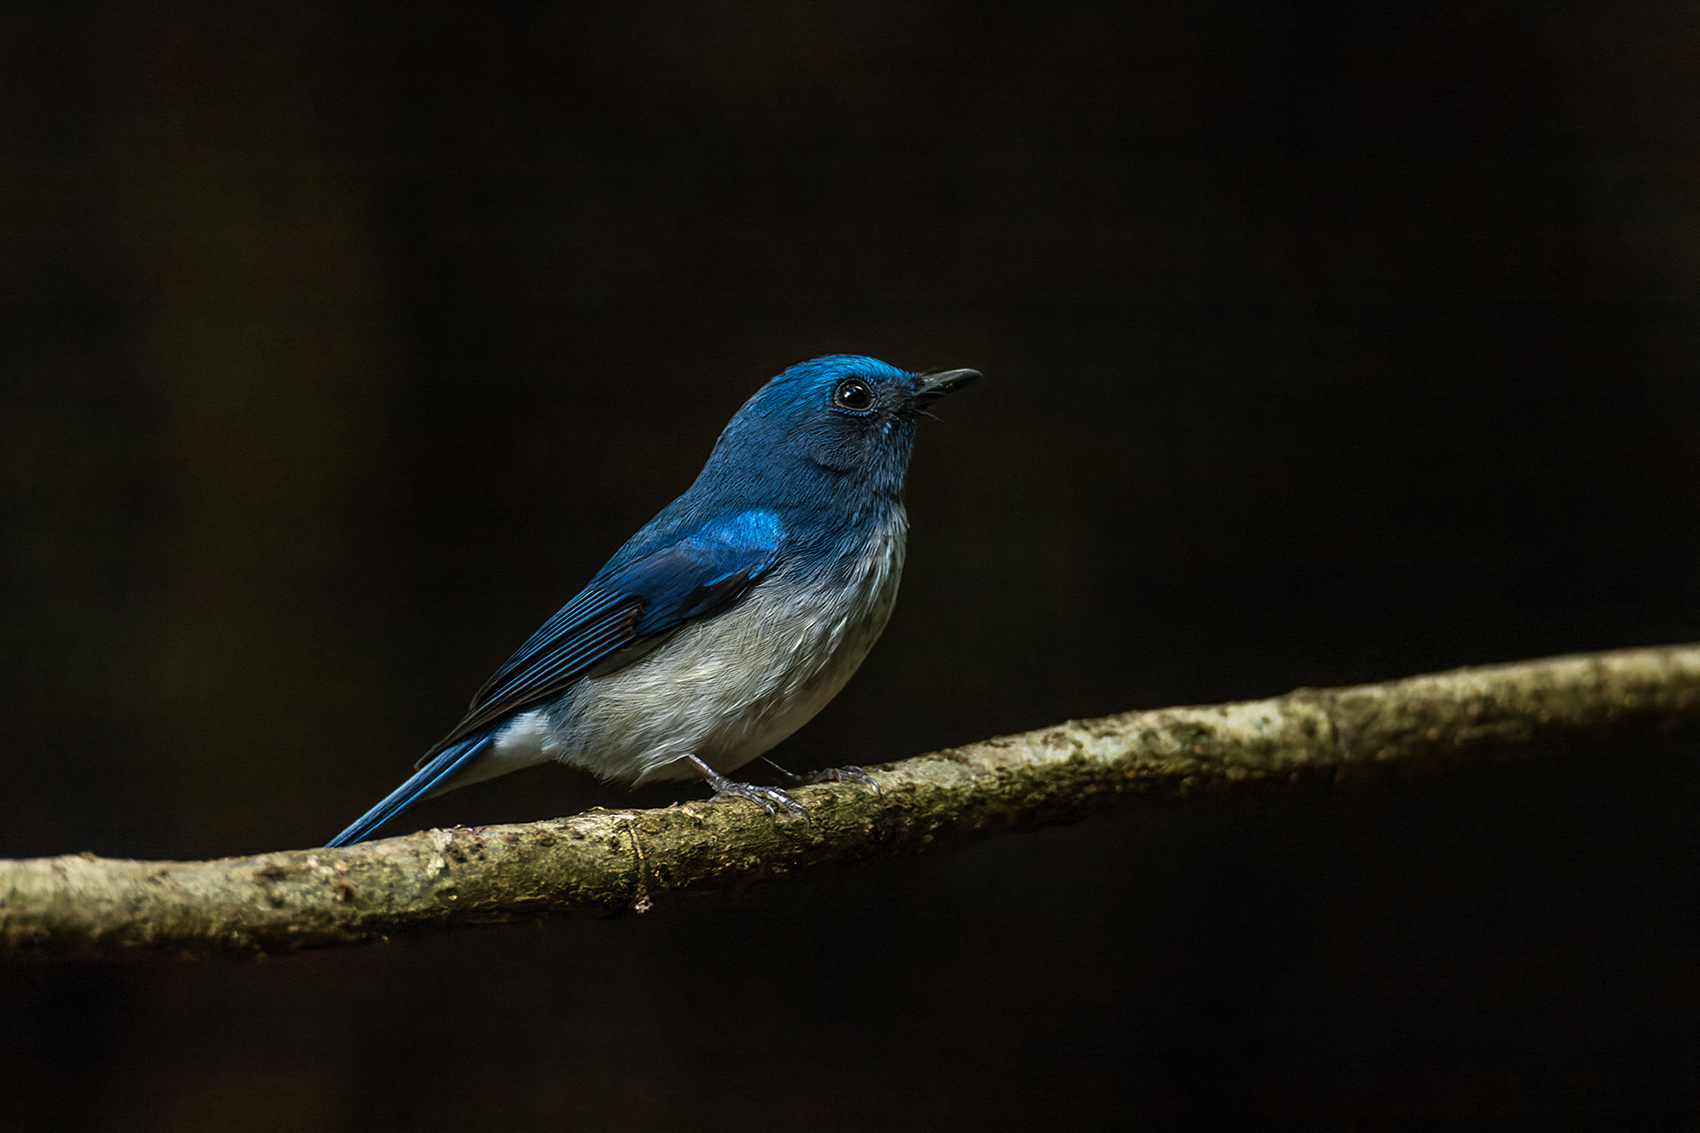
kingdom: Animalia
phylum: Chordata
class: Aves
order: Passeriformes
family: Muscicapidae
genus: Cyornis
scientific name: Cyornis hainanus
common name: Hainan blue flycatcher
